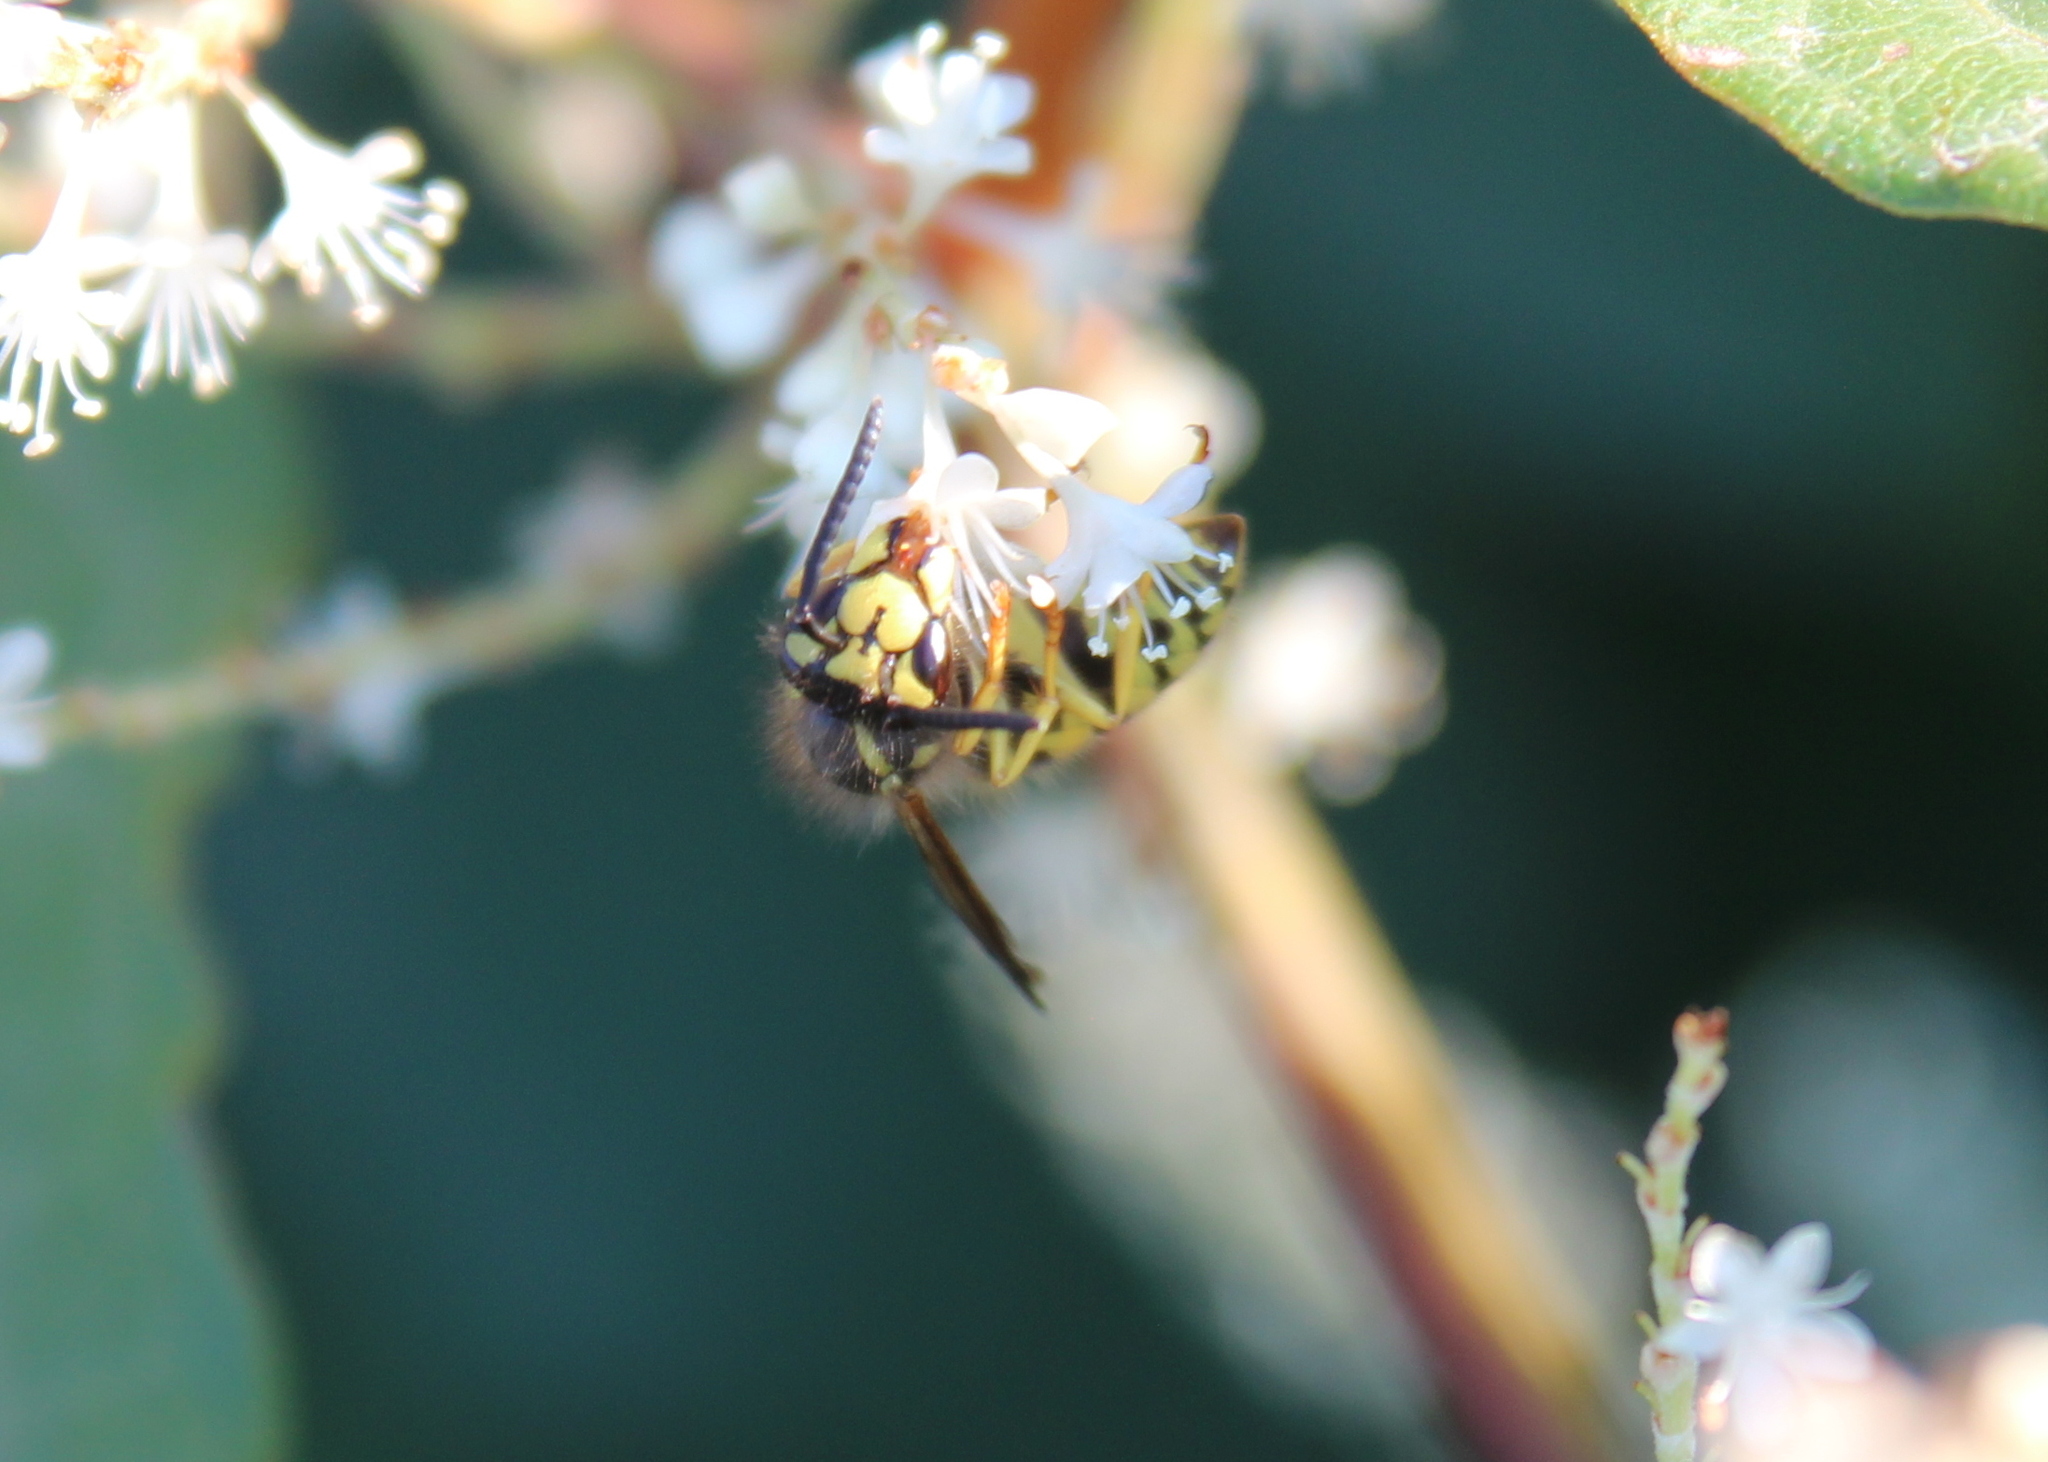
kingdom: Animalia
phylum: Arthropoda
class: Insecta
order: Hymenoptera
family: Vespidae
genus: Vespula
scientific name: Vespula
